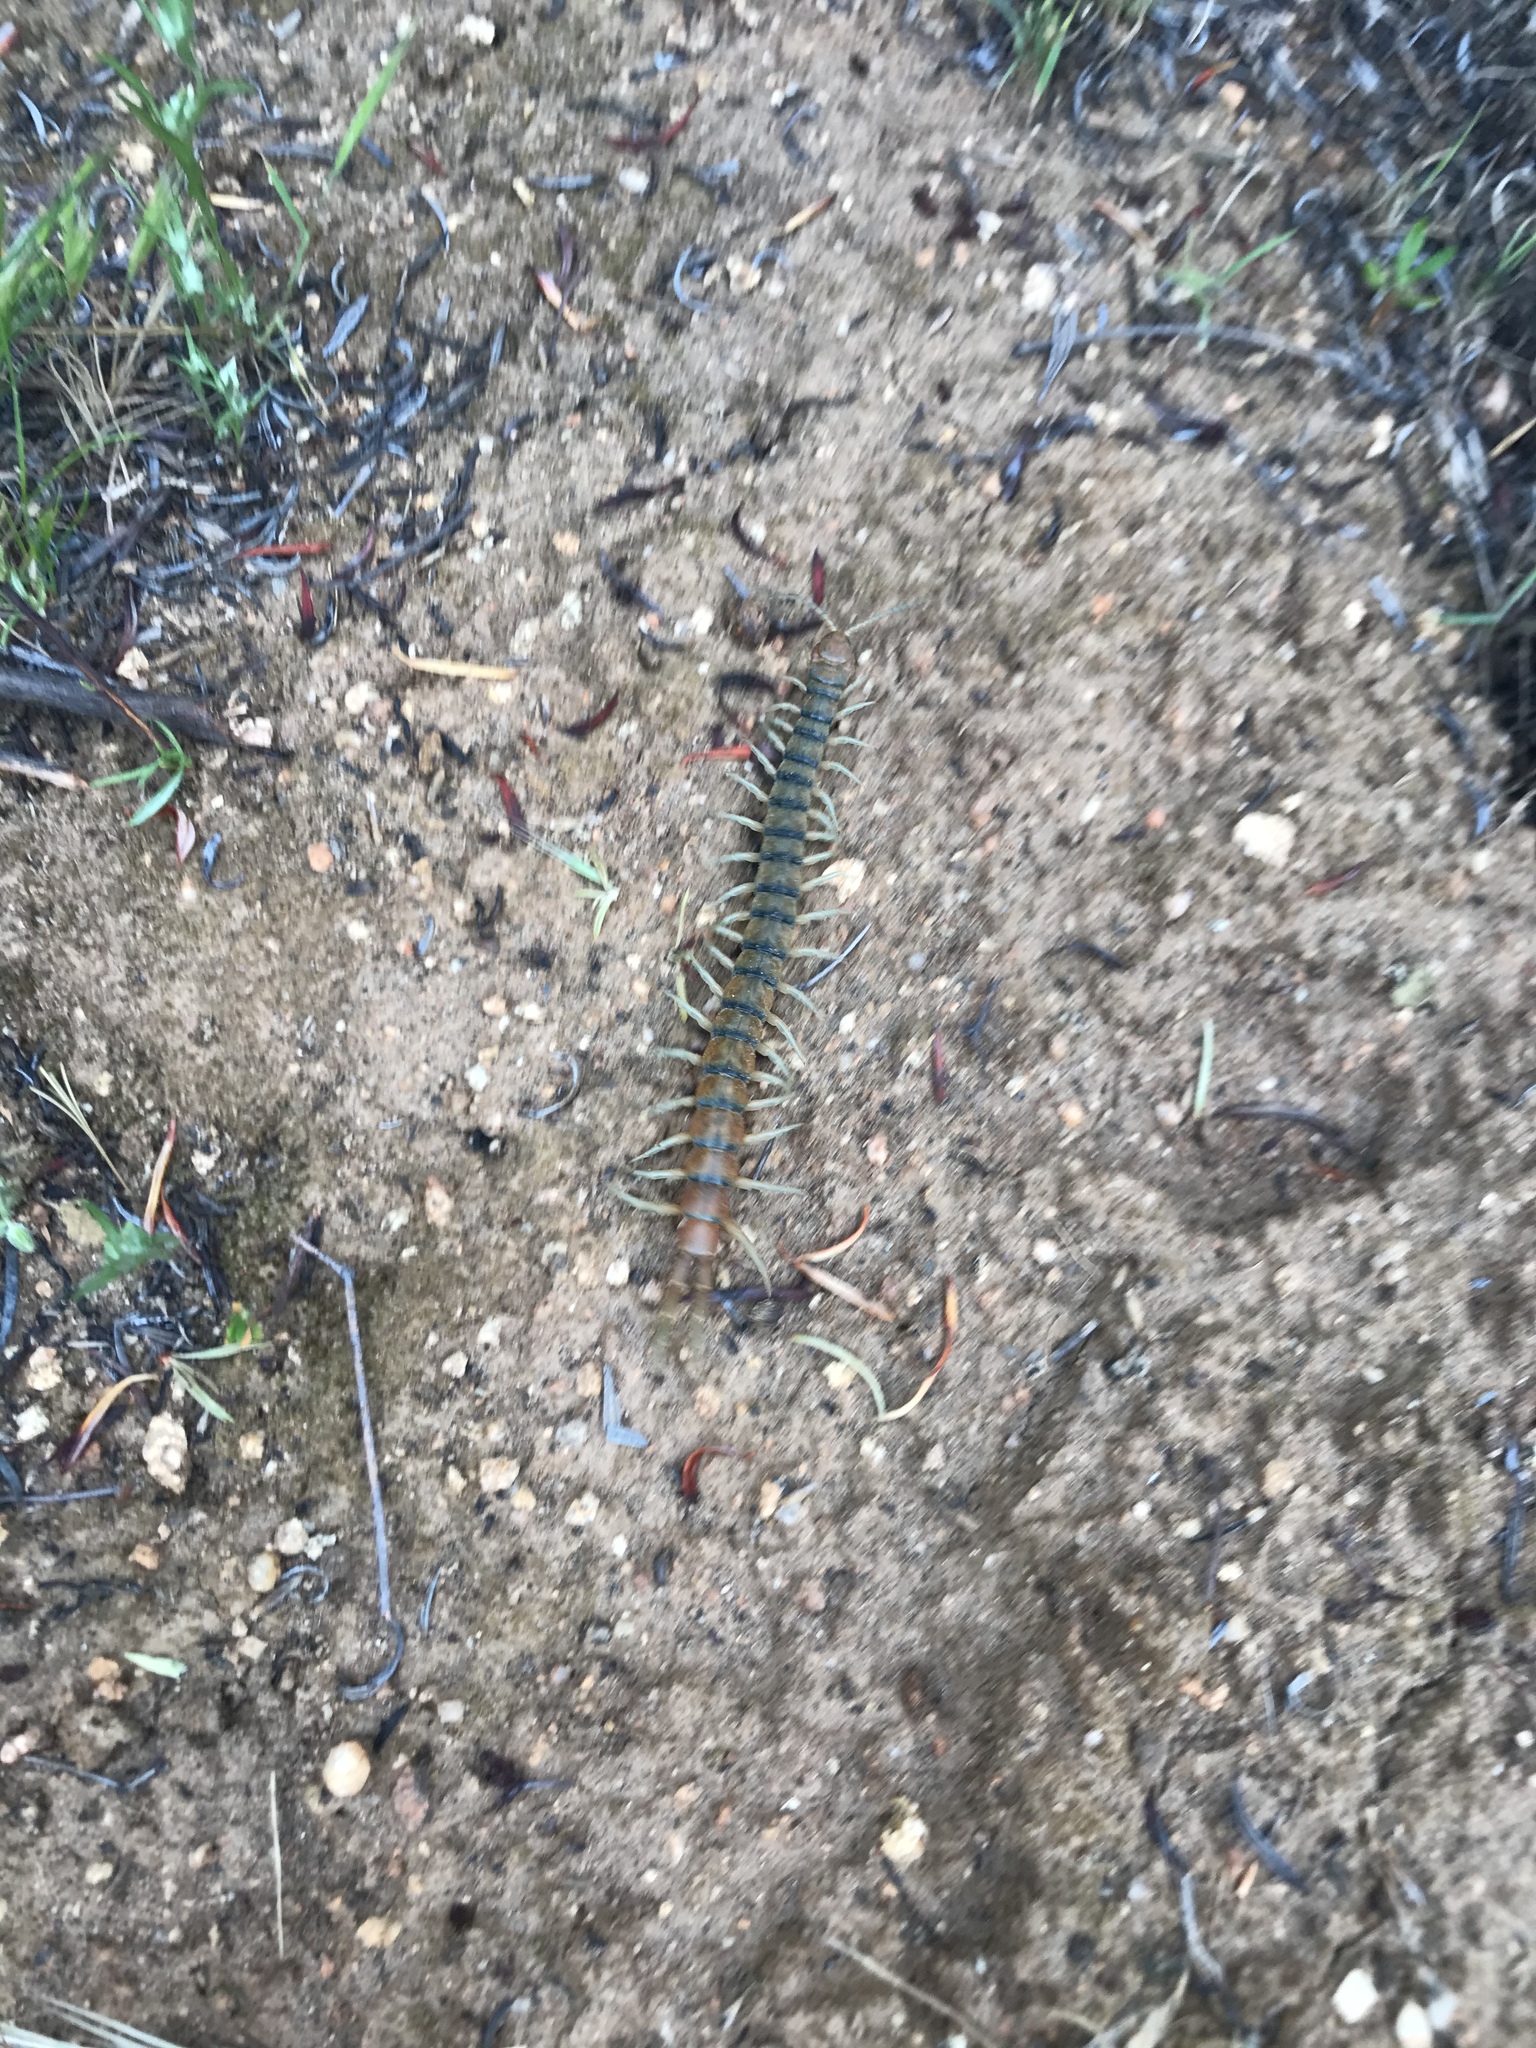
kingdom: Animalia
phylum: Arthropoda
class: Chilopoda
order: Scolopendromorpha
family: Scolopendridae
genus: Scolopendra
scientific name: Scolopendra polymorpha
